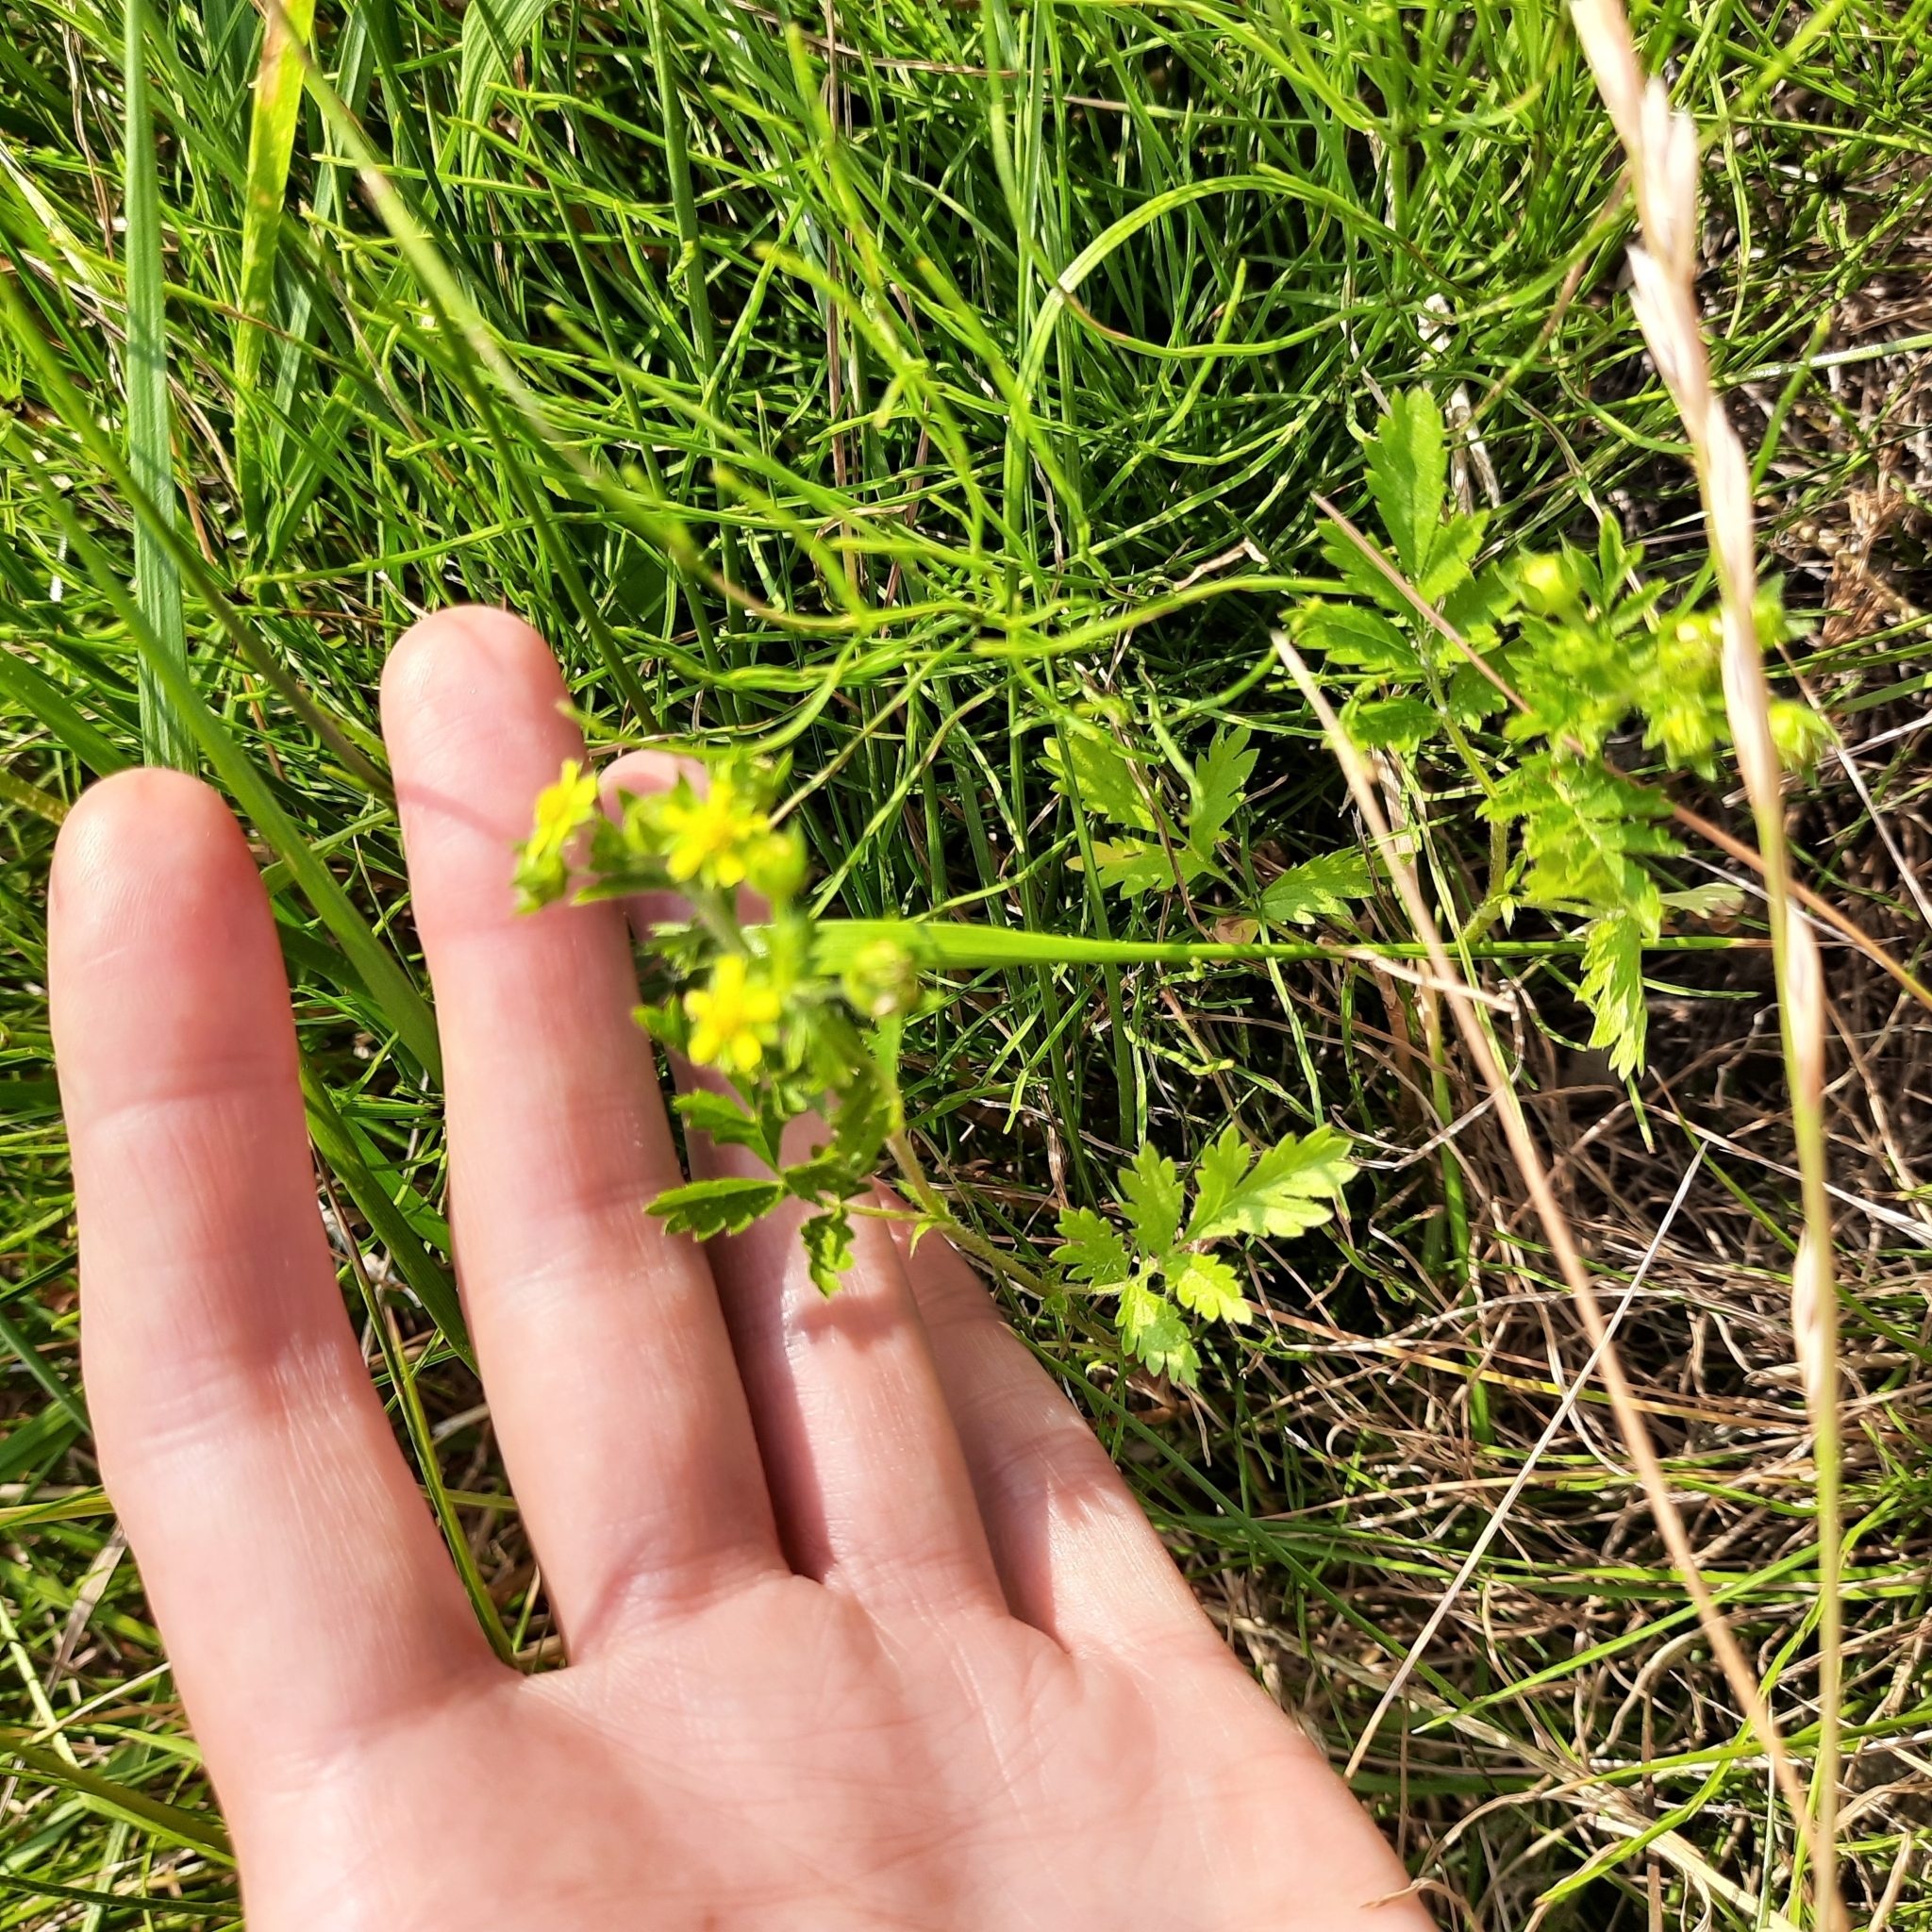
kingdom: Plantae
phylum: Tracheophyta
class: Magnoliopsida
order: Rosales
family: Rosaceae
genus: Potentilla
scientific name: Potentilla supina
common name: Prostrate cinquefoil
